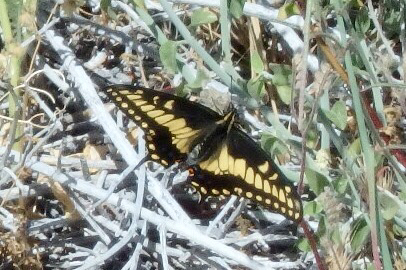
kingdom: Animalia
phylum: Arthropoda
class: Insecta
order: Lepidoptera
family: Papilionidae
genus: Papilio
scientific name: Papilio polyxenes
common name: Black swallowtail
